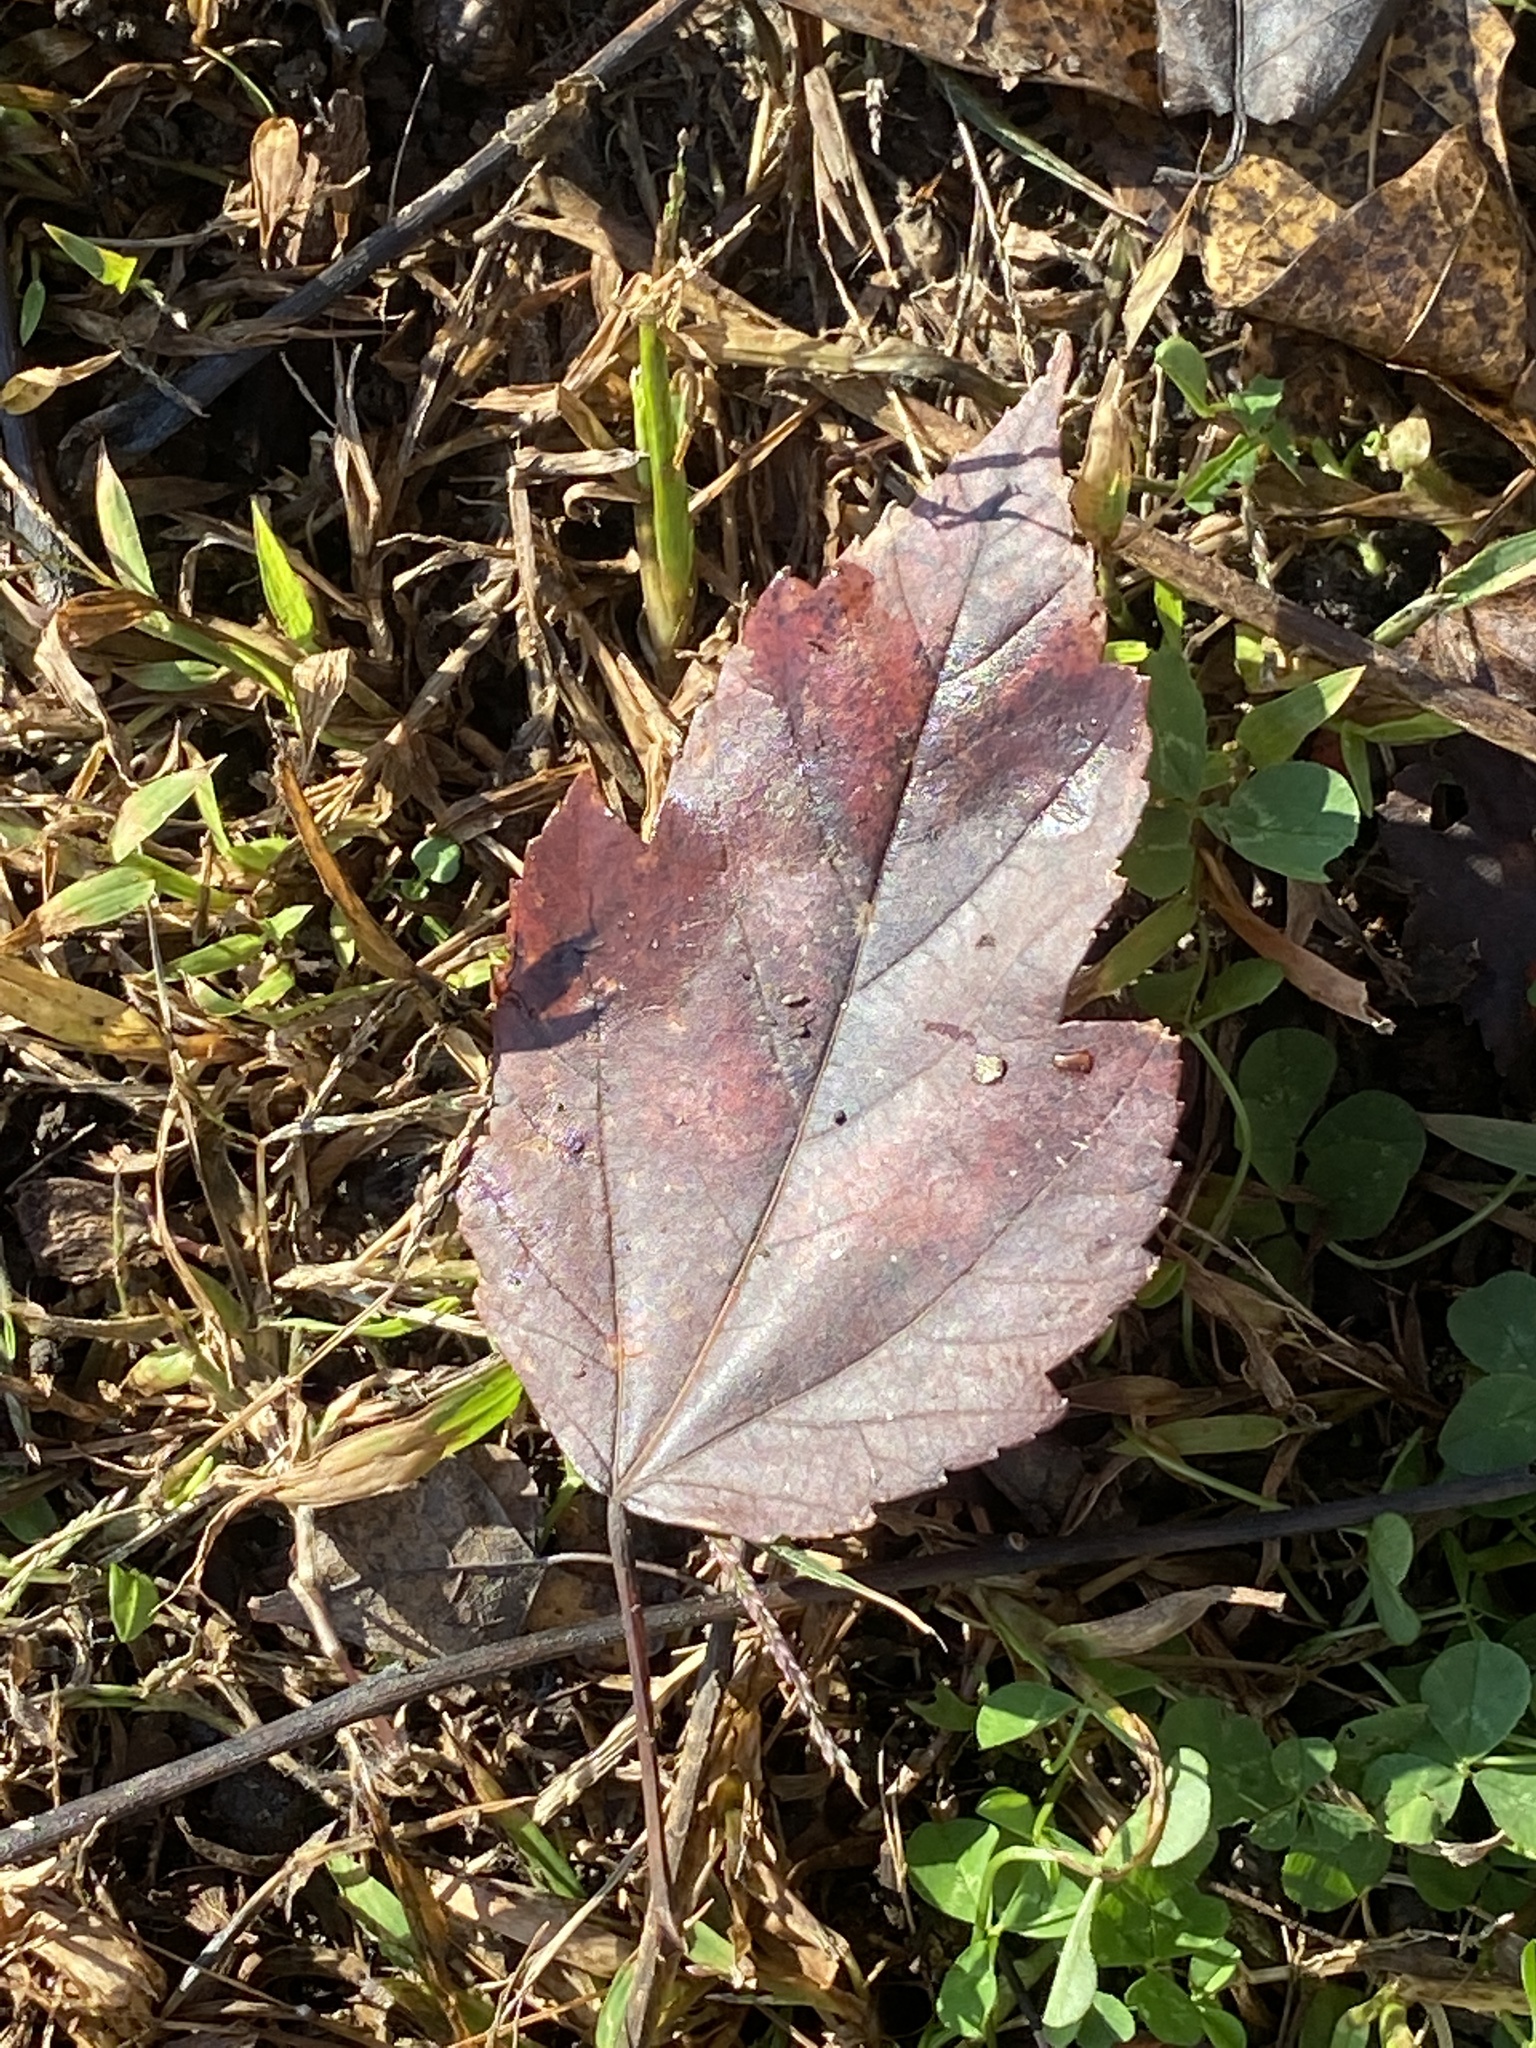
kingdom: Plantae
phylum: Tracheophyta
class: Magnoliopsida
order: Sapindales
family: Sapindaceae
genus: Acer
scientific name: Acer rubrum
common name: Red maple
